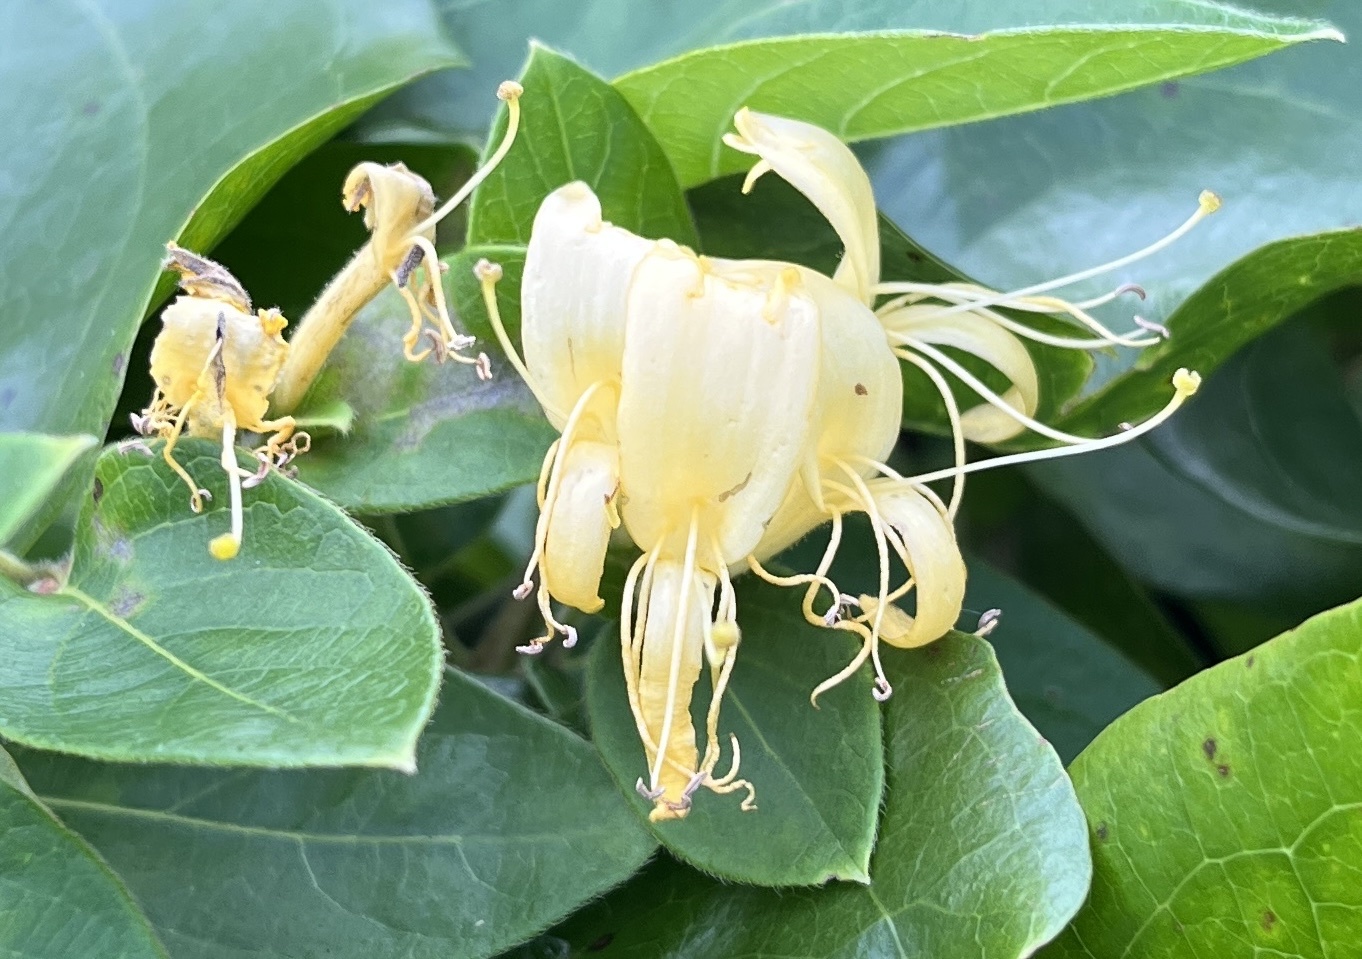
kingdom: Plantae
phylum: Tracheophyta
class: Magnoliopsida
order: Dipsacales
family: Caprifoliaceae
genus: Lonicera
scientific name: Lonicera japonica
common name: Japanese honeysuckle
